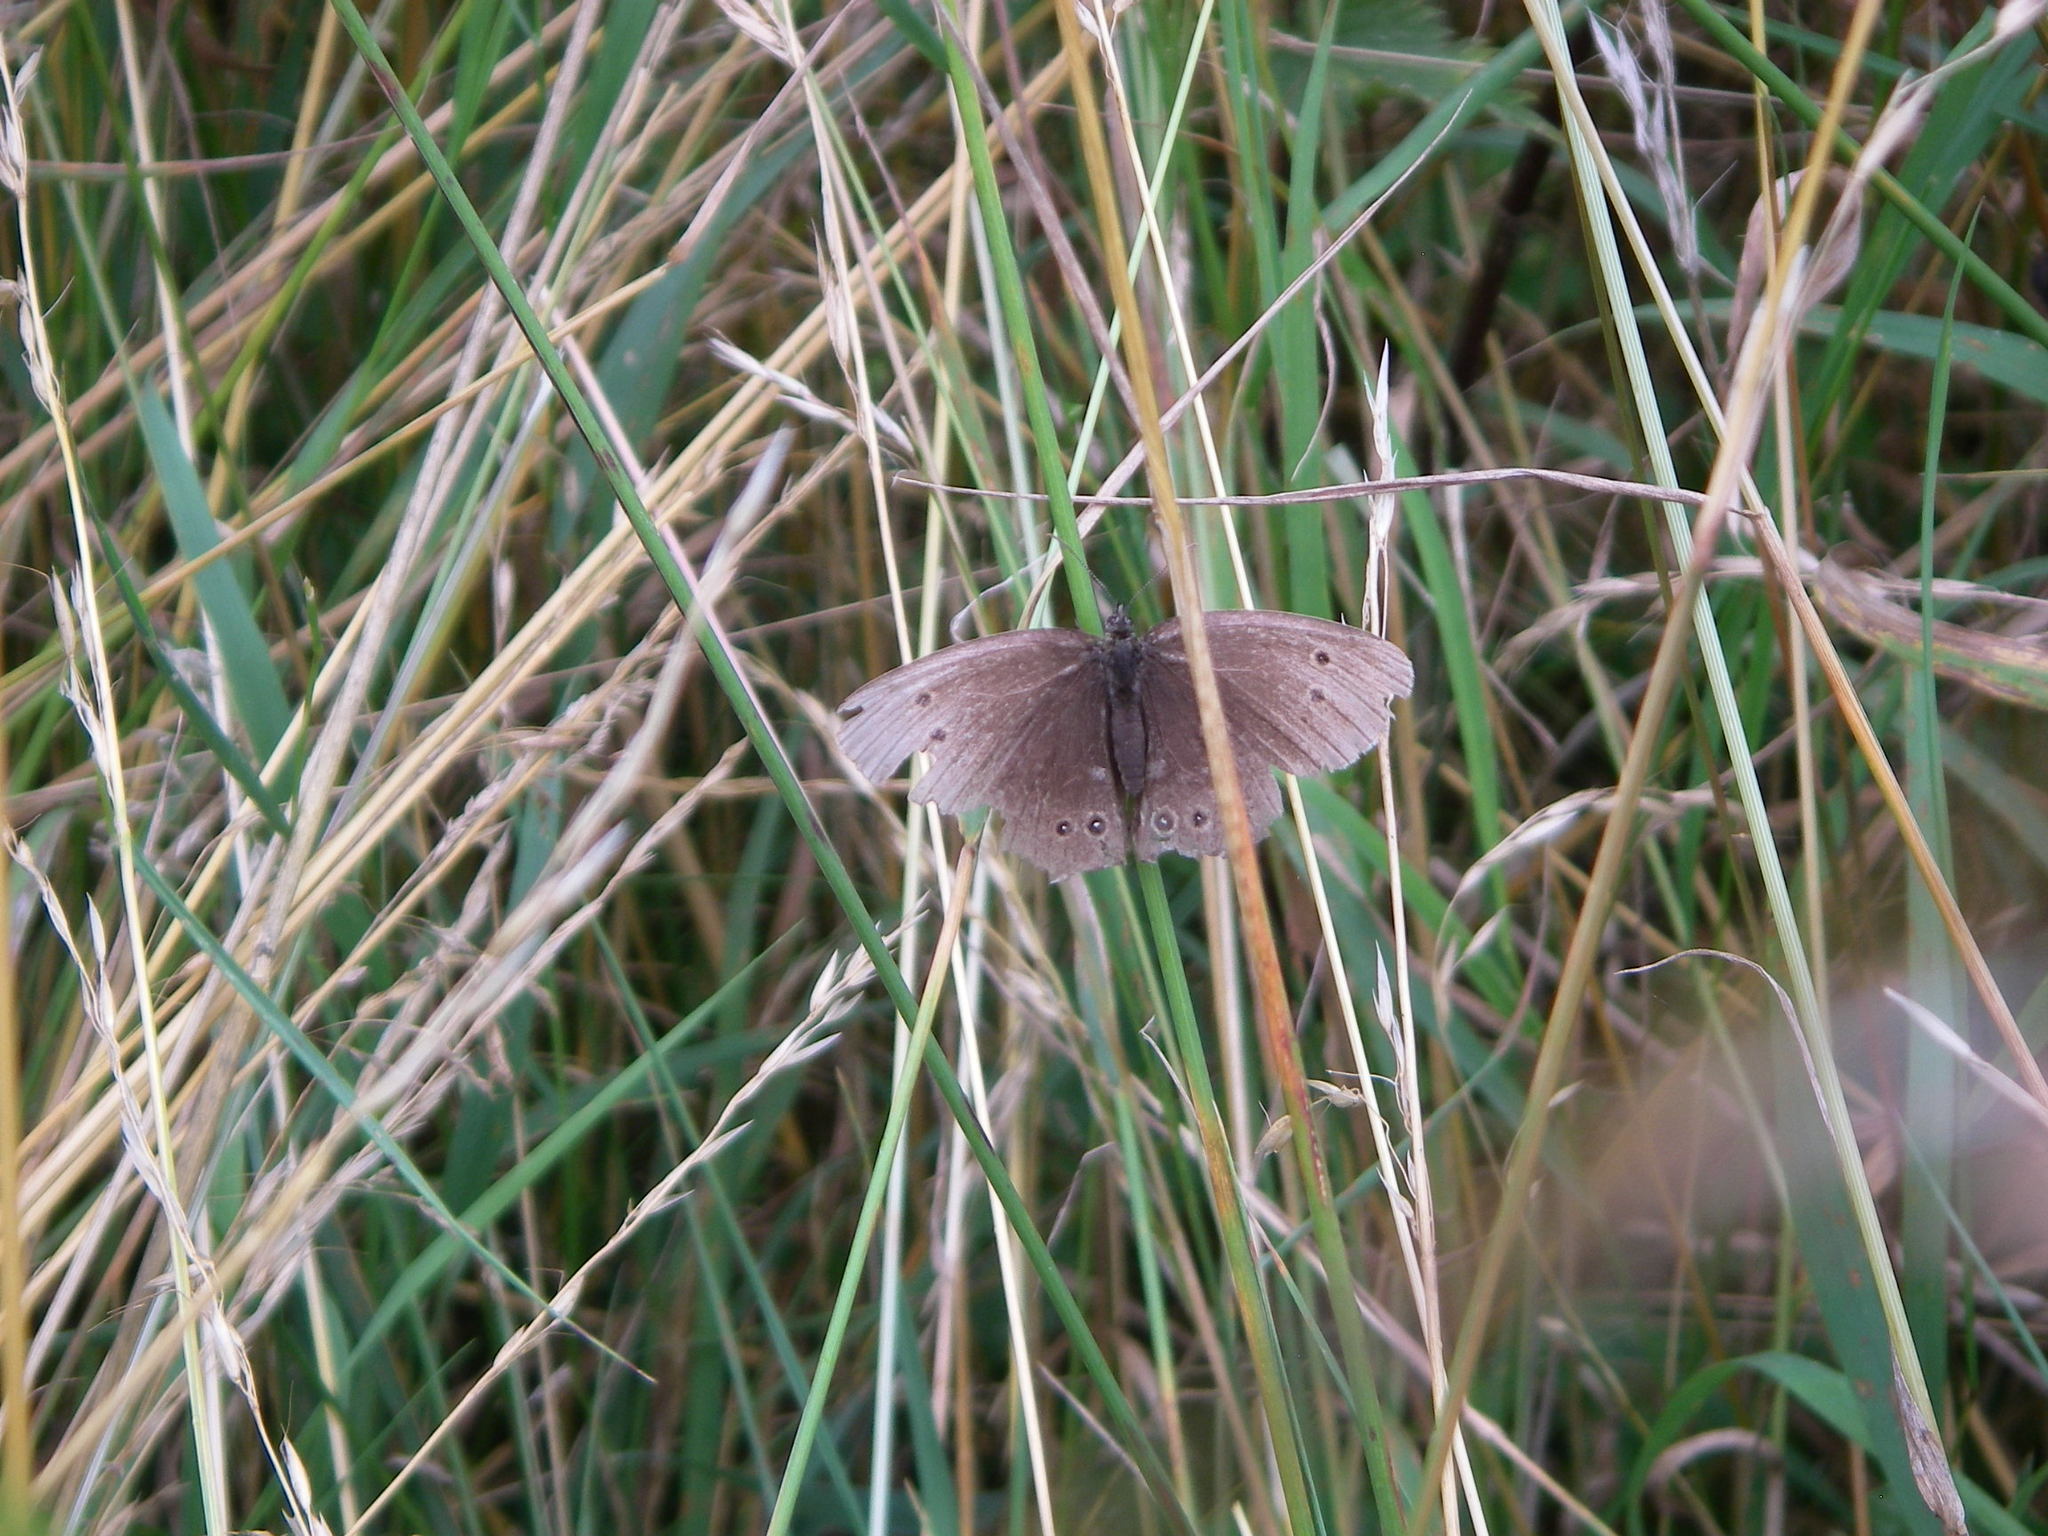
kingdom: Animalia
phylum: Arthropoda
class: Insecta
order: Lepidoptera
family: Nymphalidae
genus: Aphantopus
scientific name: Aphantopus hyperantus
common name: Ringlet
